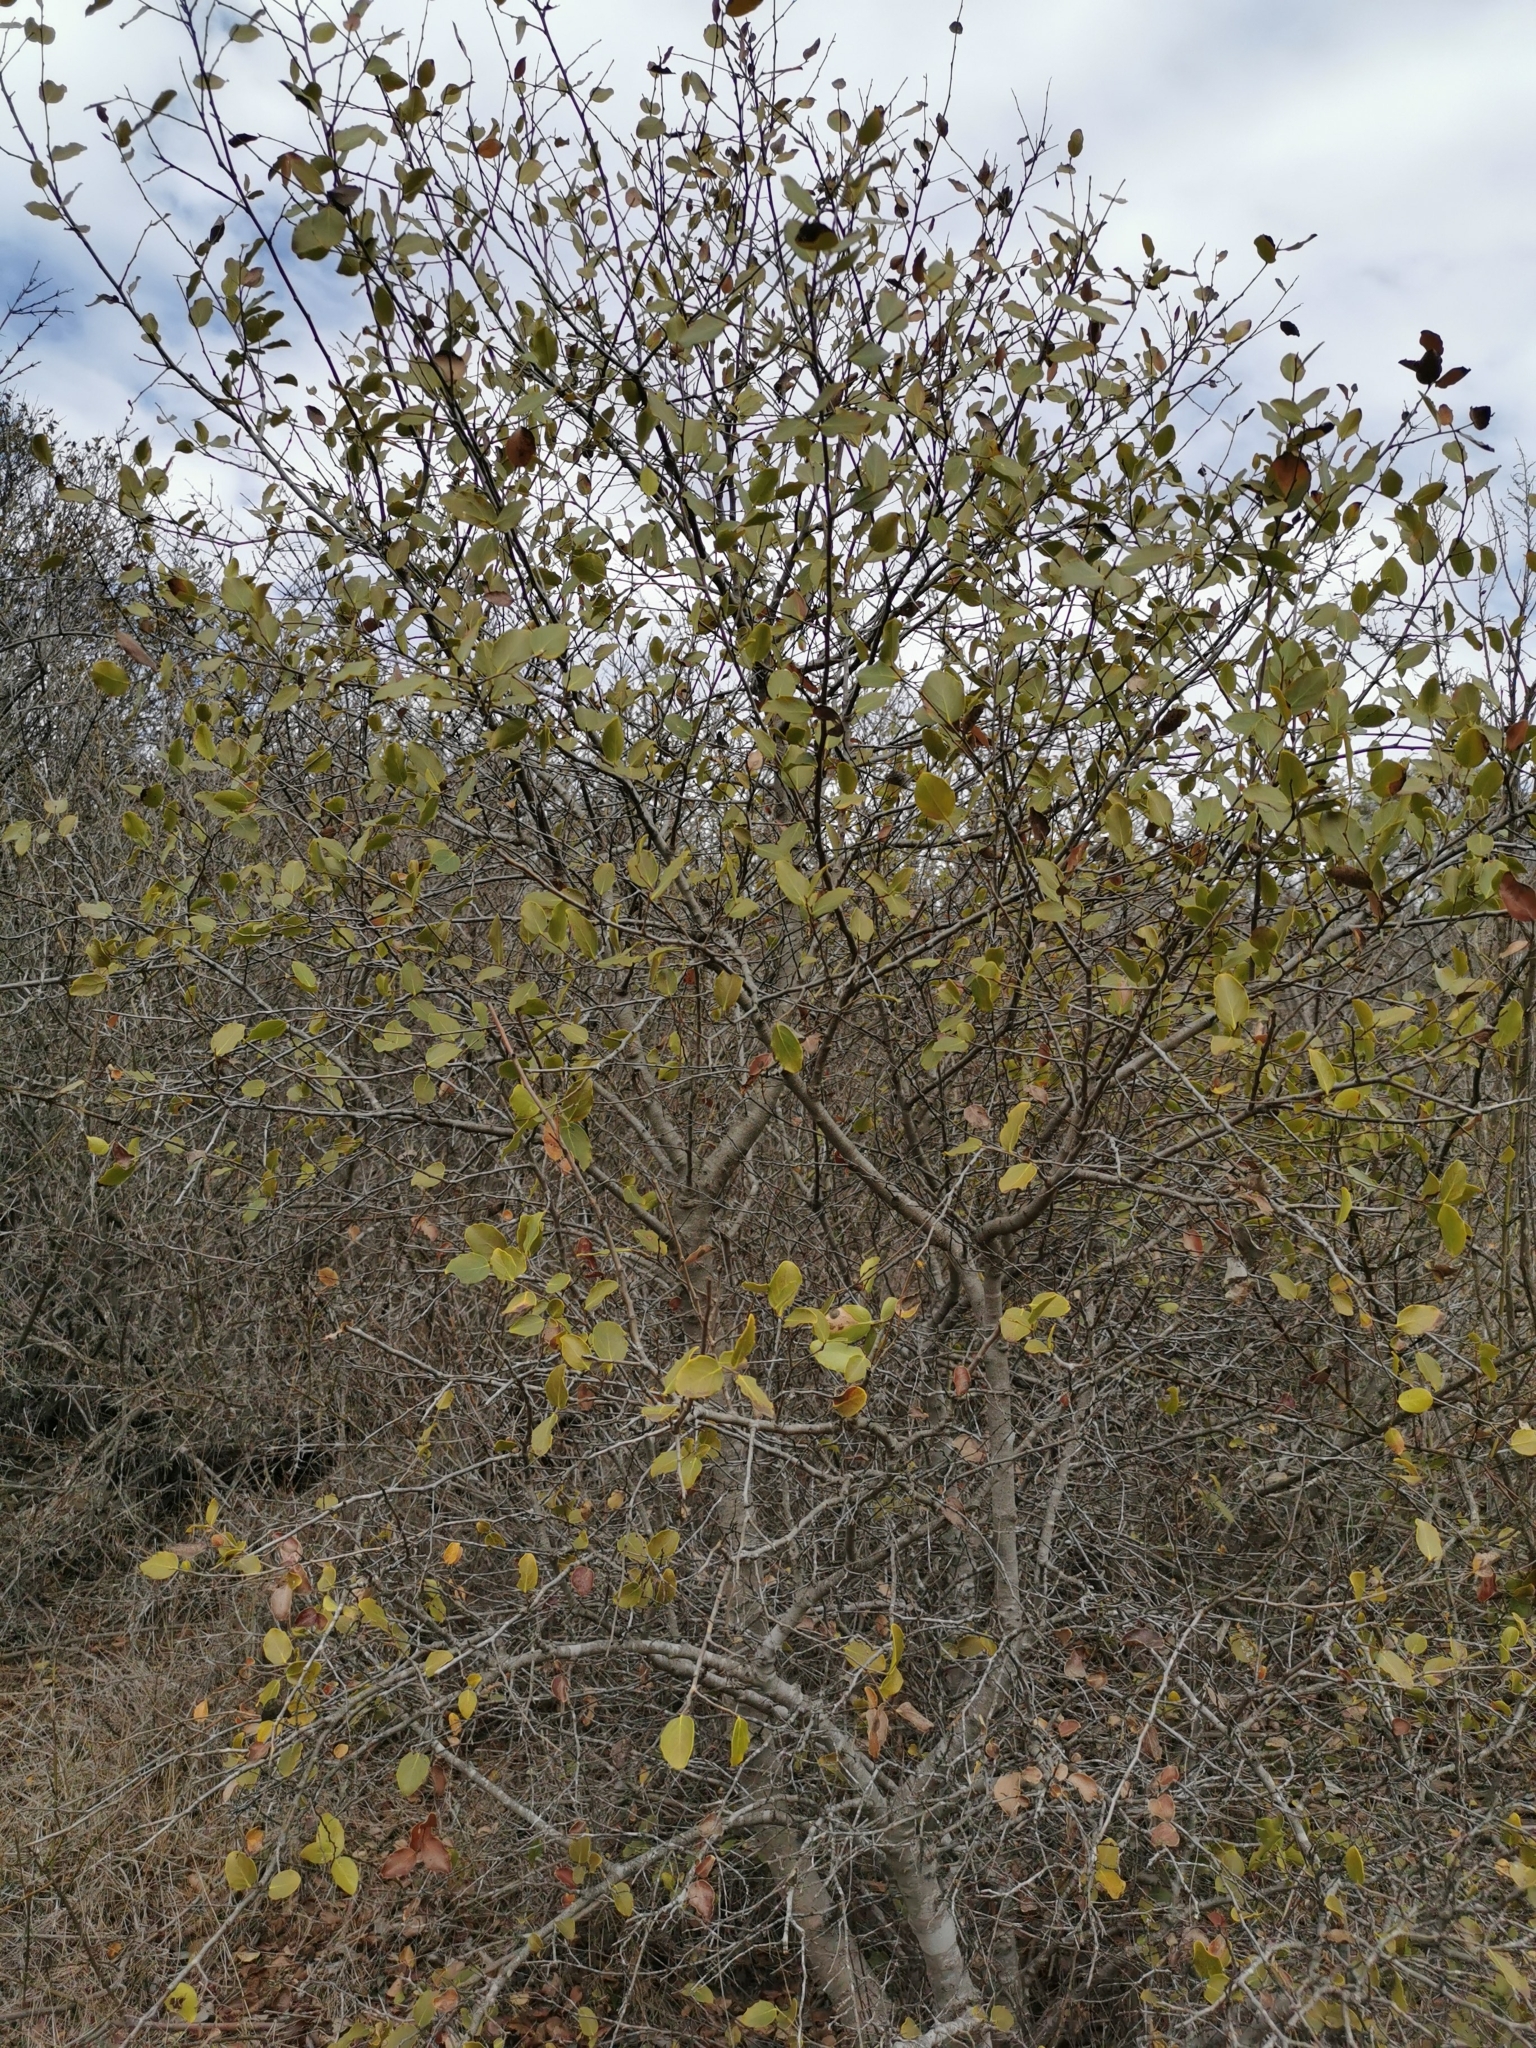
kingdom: Plantae
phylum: Tracheophyta
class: Magnoliopsida
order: Fabales
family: Quillajaceae
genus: Quillaja
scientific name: Quillaja saponaria
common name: Murillo's-bark
